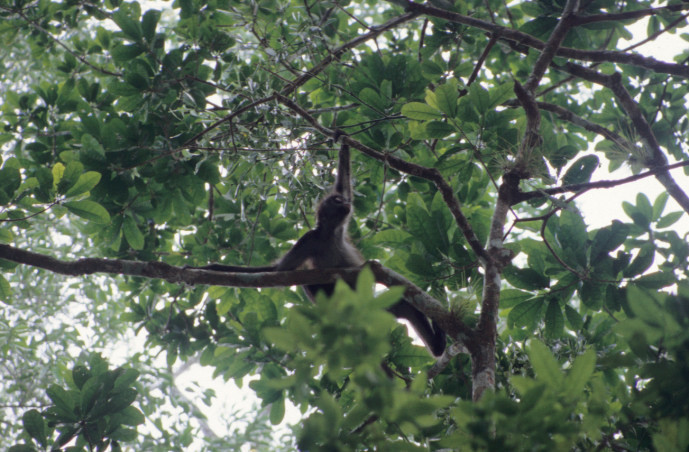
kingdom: Animalia
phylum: Chordata
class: Mammalia
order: Primates
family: Atelidae
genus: Ateles
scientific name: Ateles geoffroyi
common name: Black-handed spider monkey
